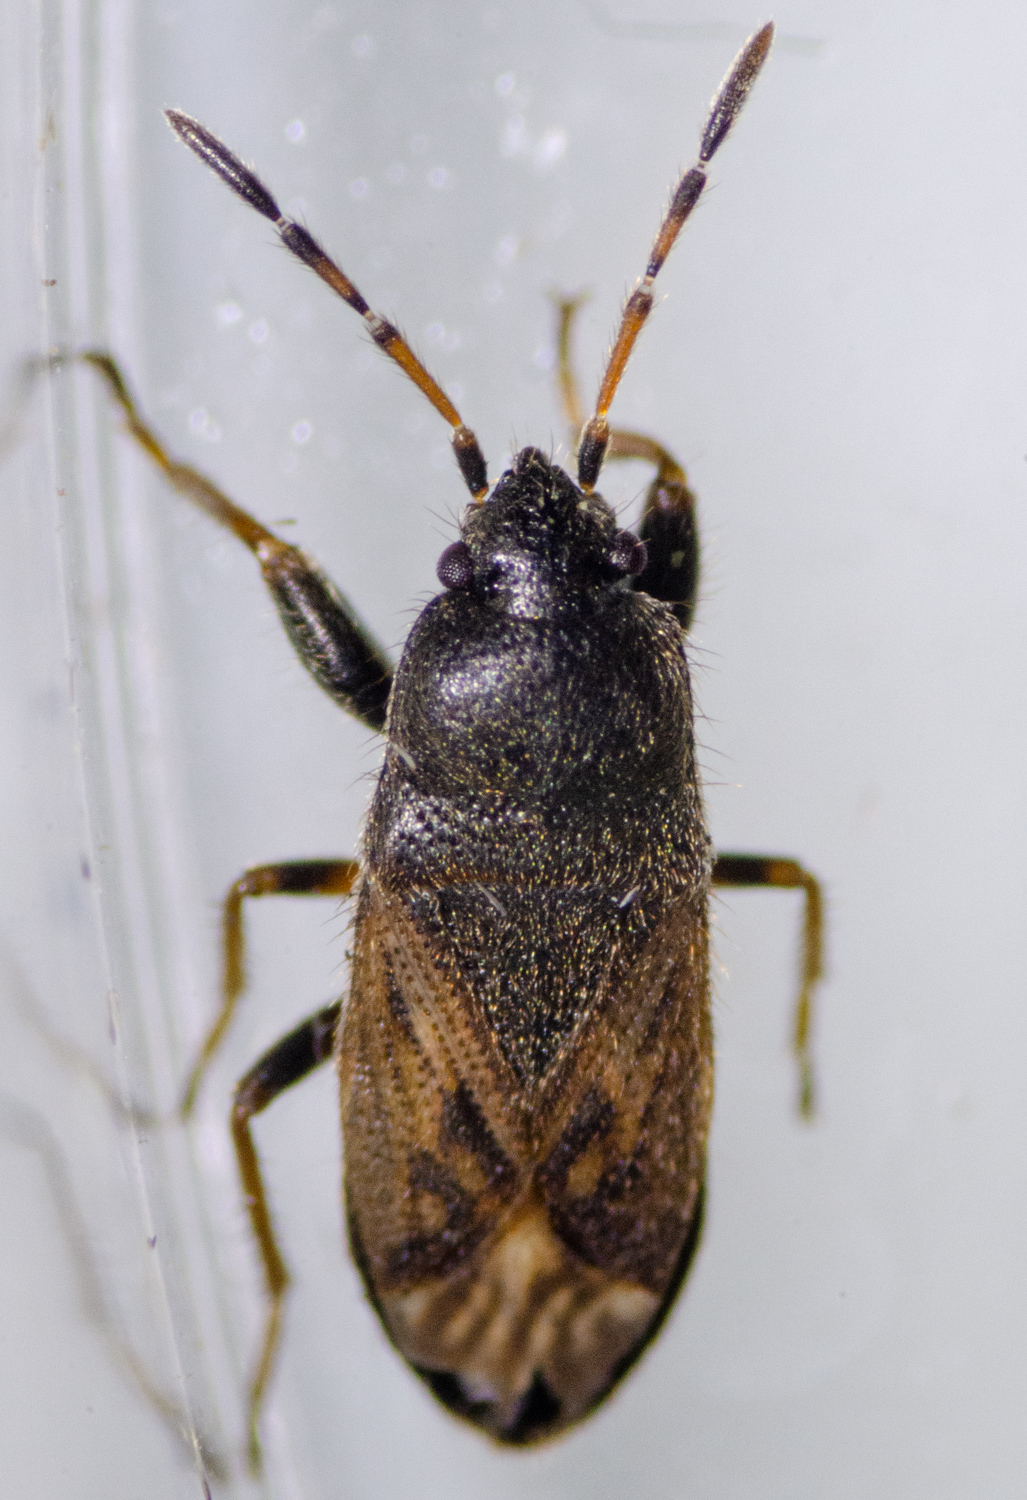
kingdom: Animalia
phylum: Arthropoda
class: Insecta
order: Hemiptera
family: Rhyparochromidae
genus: Megalonotus
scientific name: Megalonotus sabulicola
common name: Seed bug
